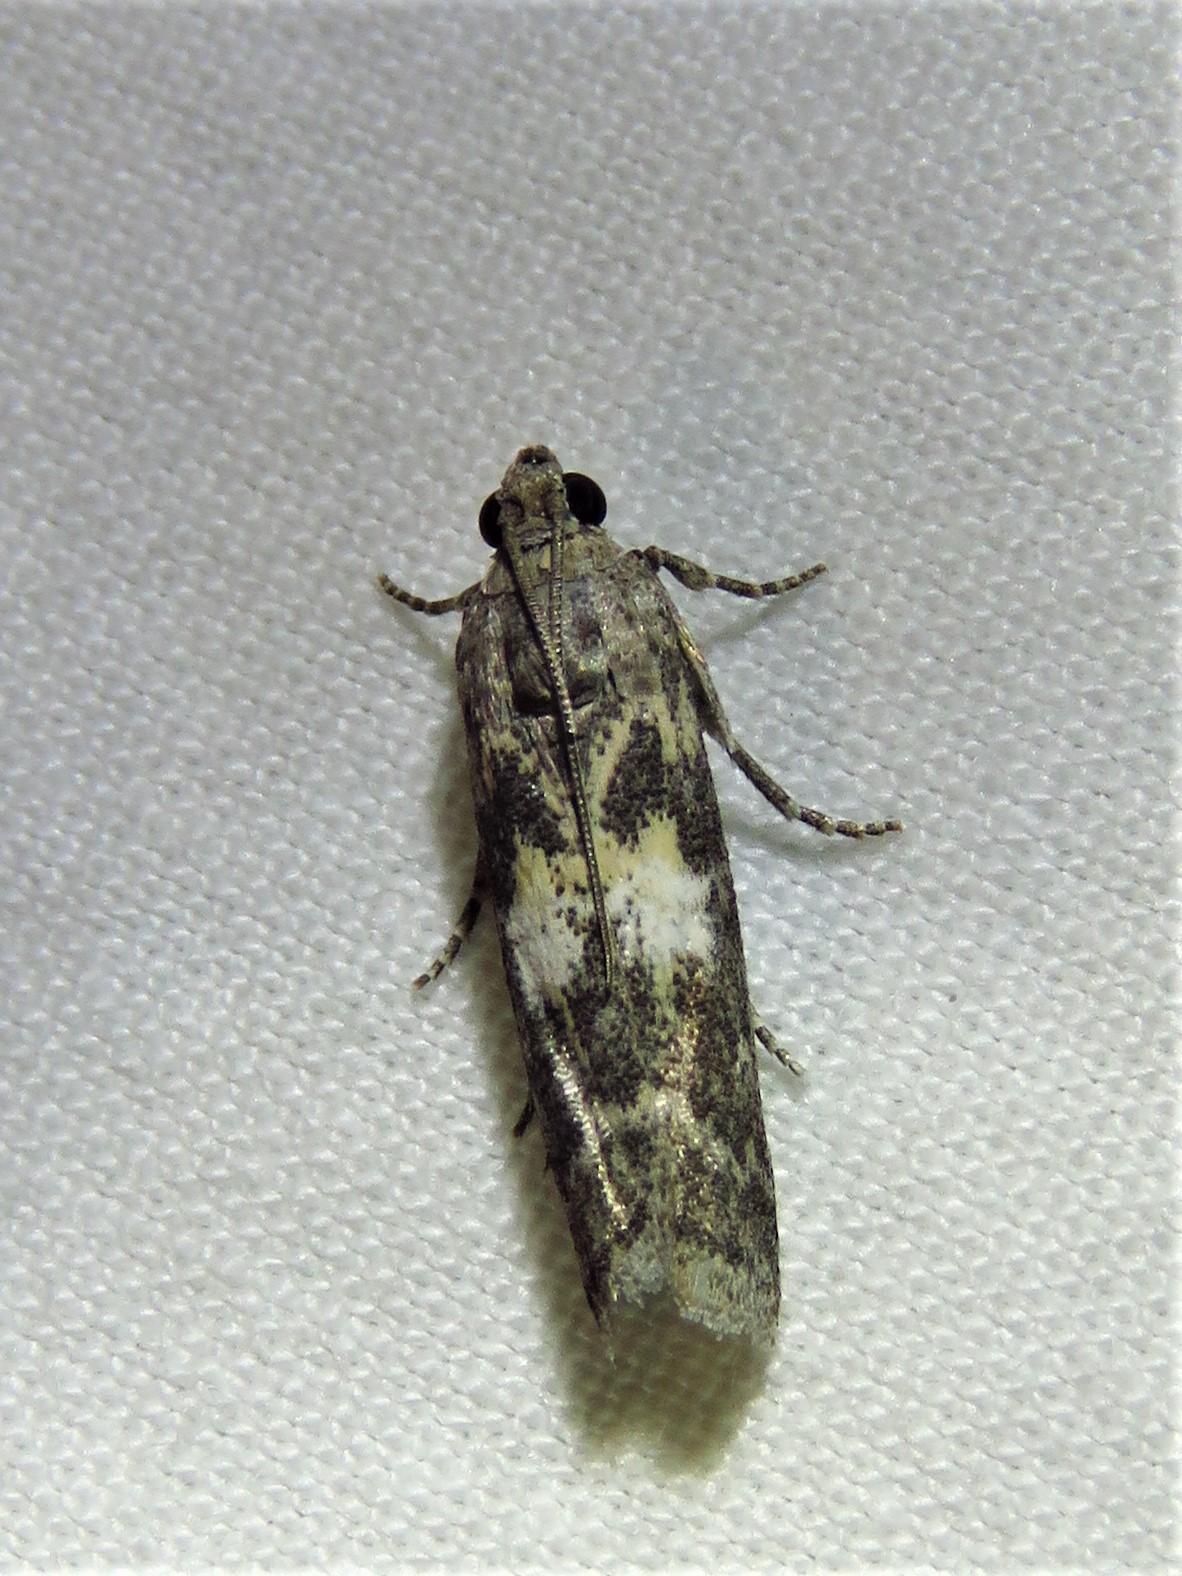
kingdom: Animalia
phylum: Arthropoda
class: Insecta
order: Lepidoptera
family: Pyralidae
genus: Tacoma
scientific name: Tacoma feriella
